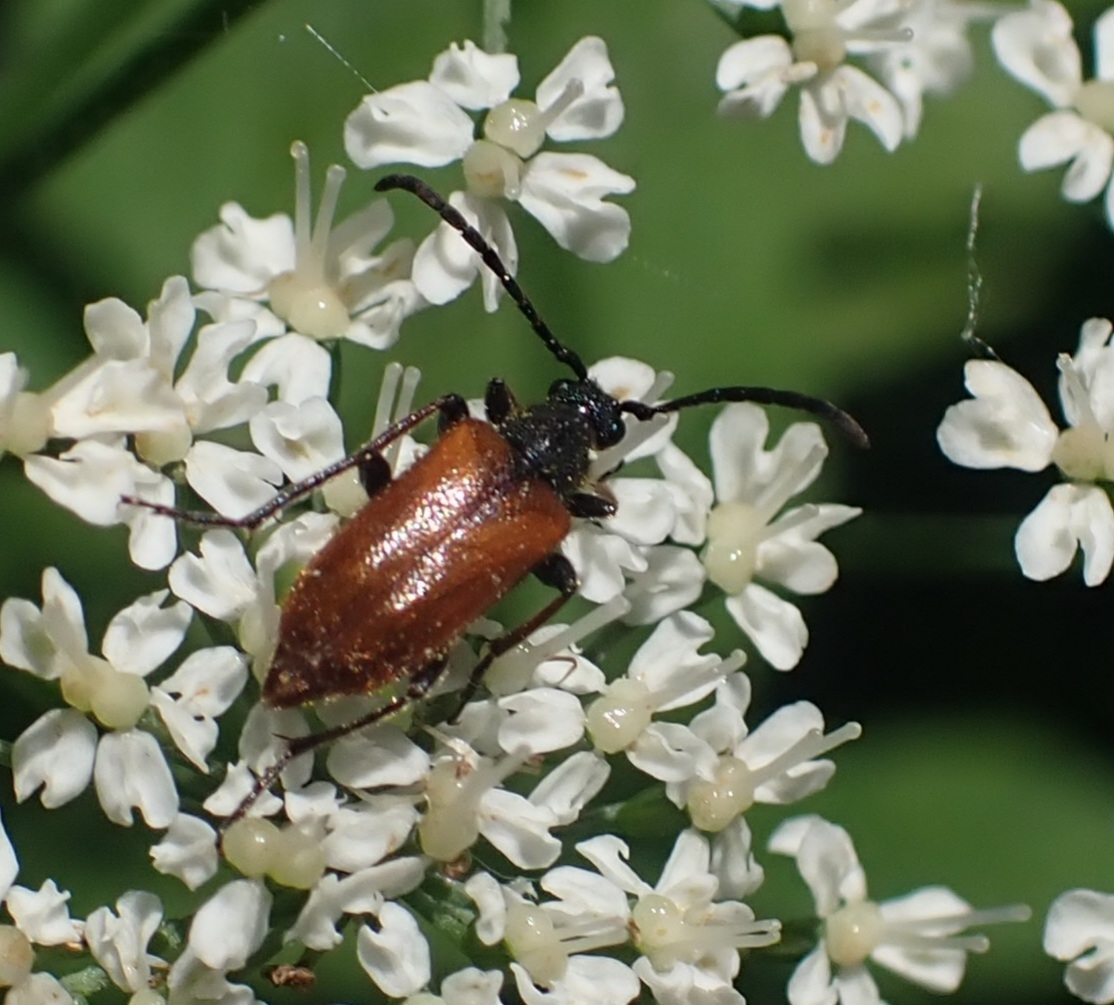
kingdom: Animalia
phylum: Arthropoda
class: Insecta
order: Coleoptera
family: Cerambycidae
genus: Pseudovadonia
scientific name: Pseudovadonia livida
